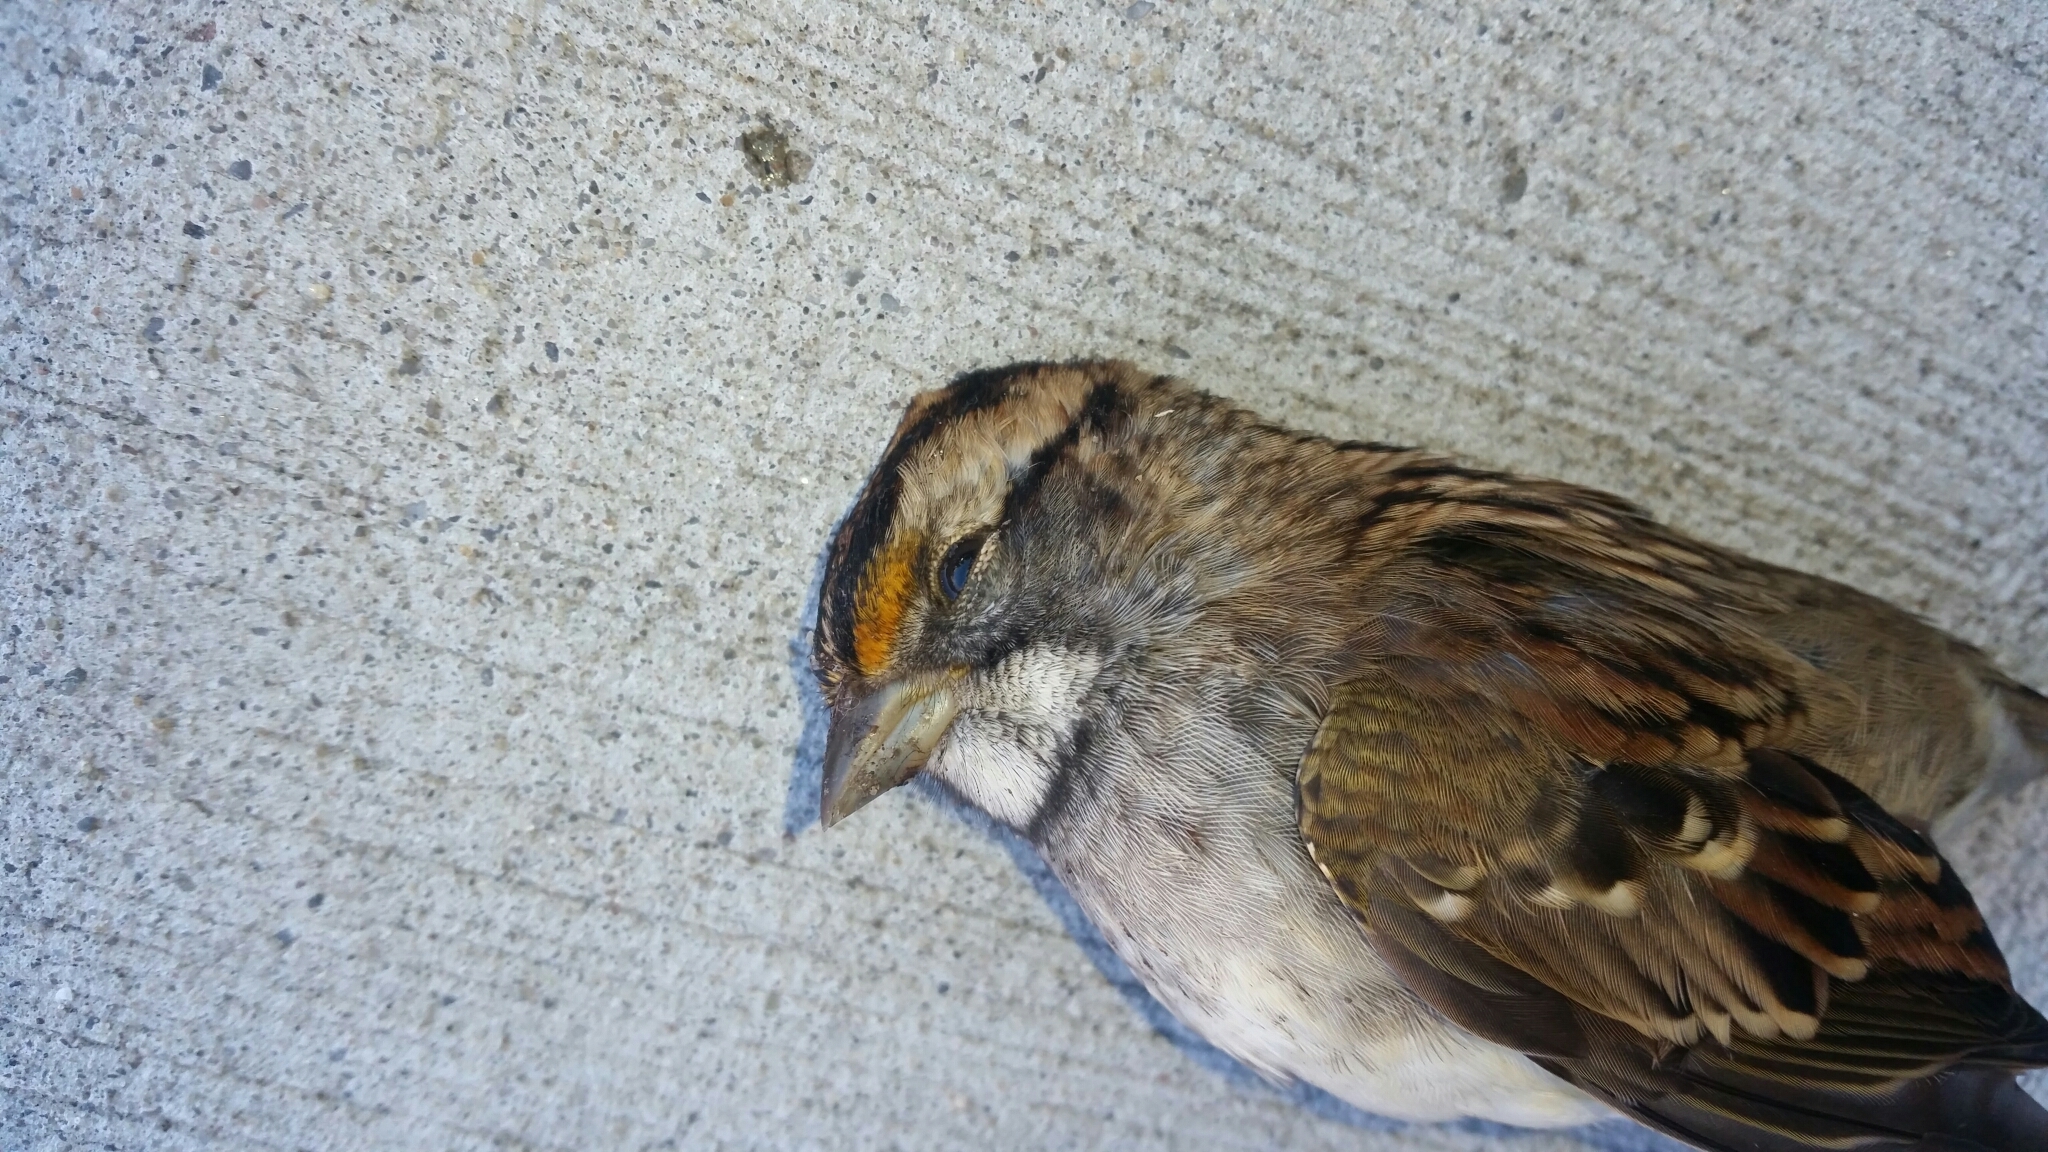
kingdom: Animalia
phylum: Chordata
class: Aves
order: Passeriformes
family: Passerellidae
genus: Zonotrichia
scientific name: Zonotrichia albicollis
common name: White-throated sparrow
